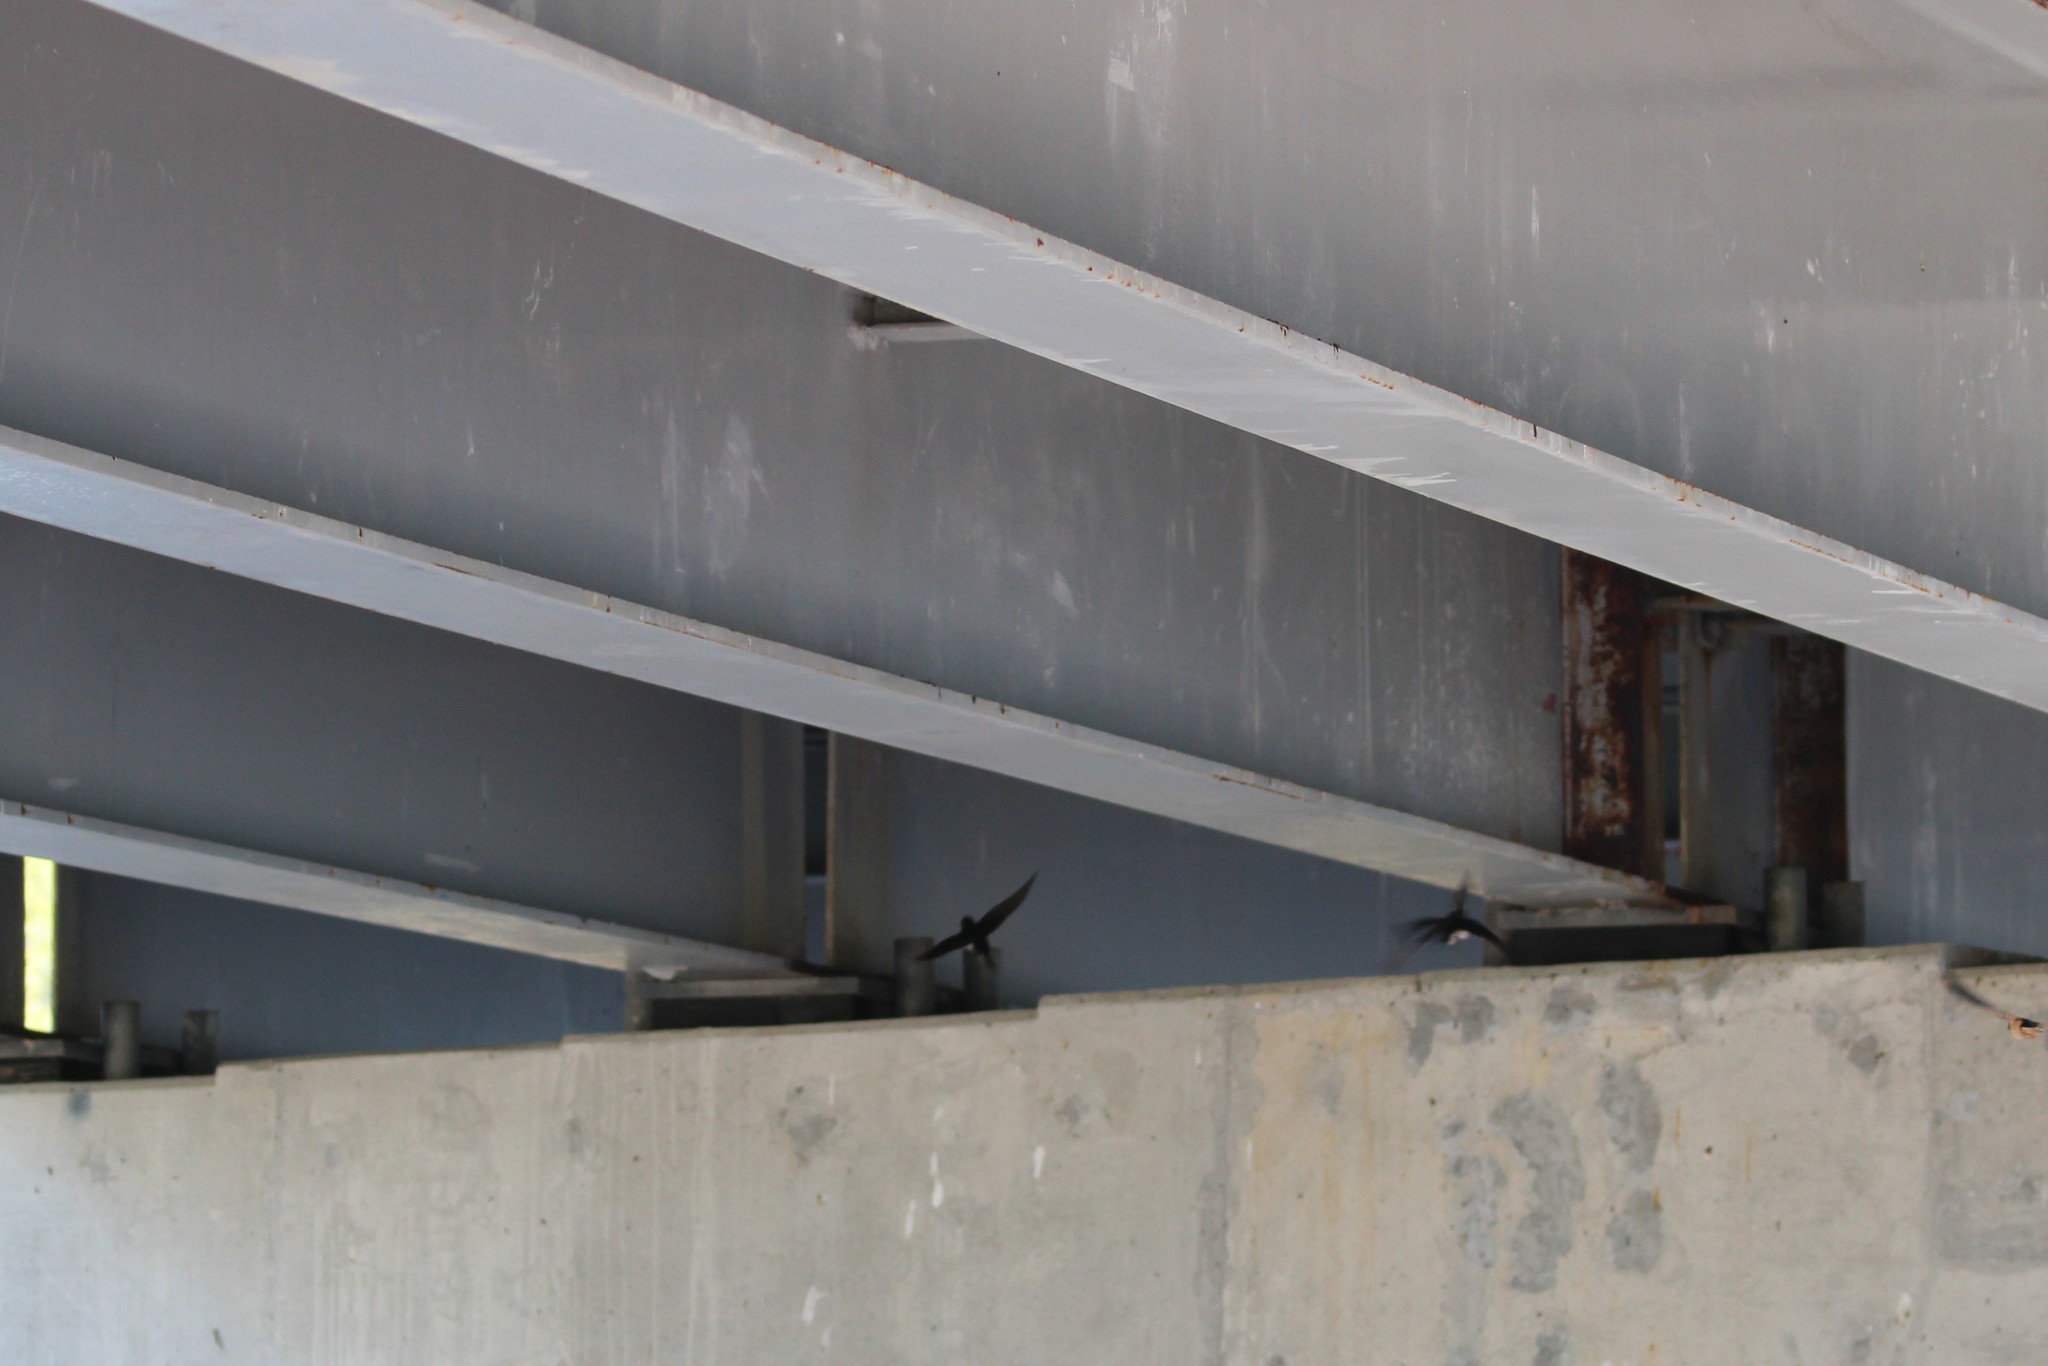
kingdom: Animalia
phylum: Chordata
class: Aves
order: Passeriformes
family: Hirundinidae
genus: Hirundo
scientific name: Hirundo rustica
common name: Barn swallow
